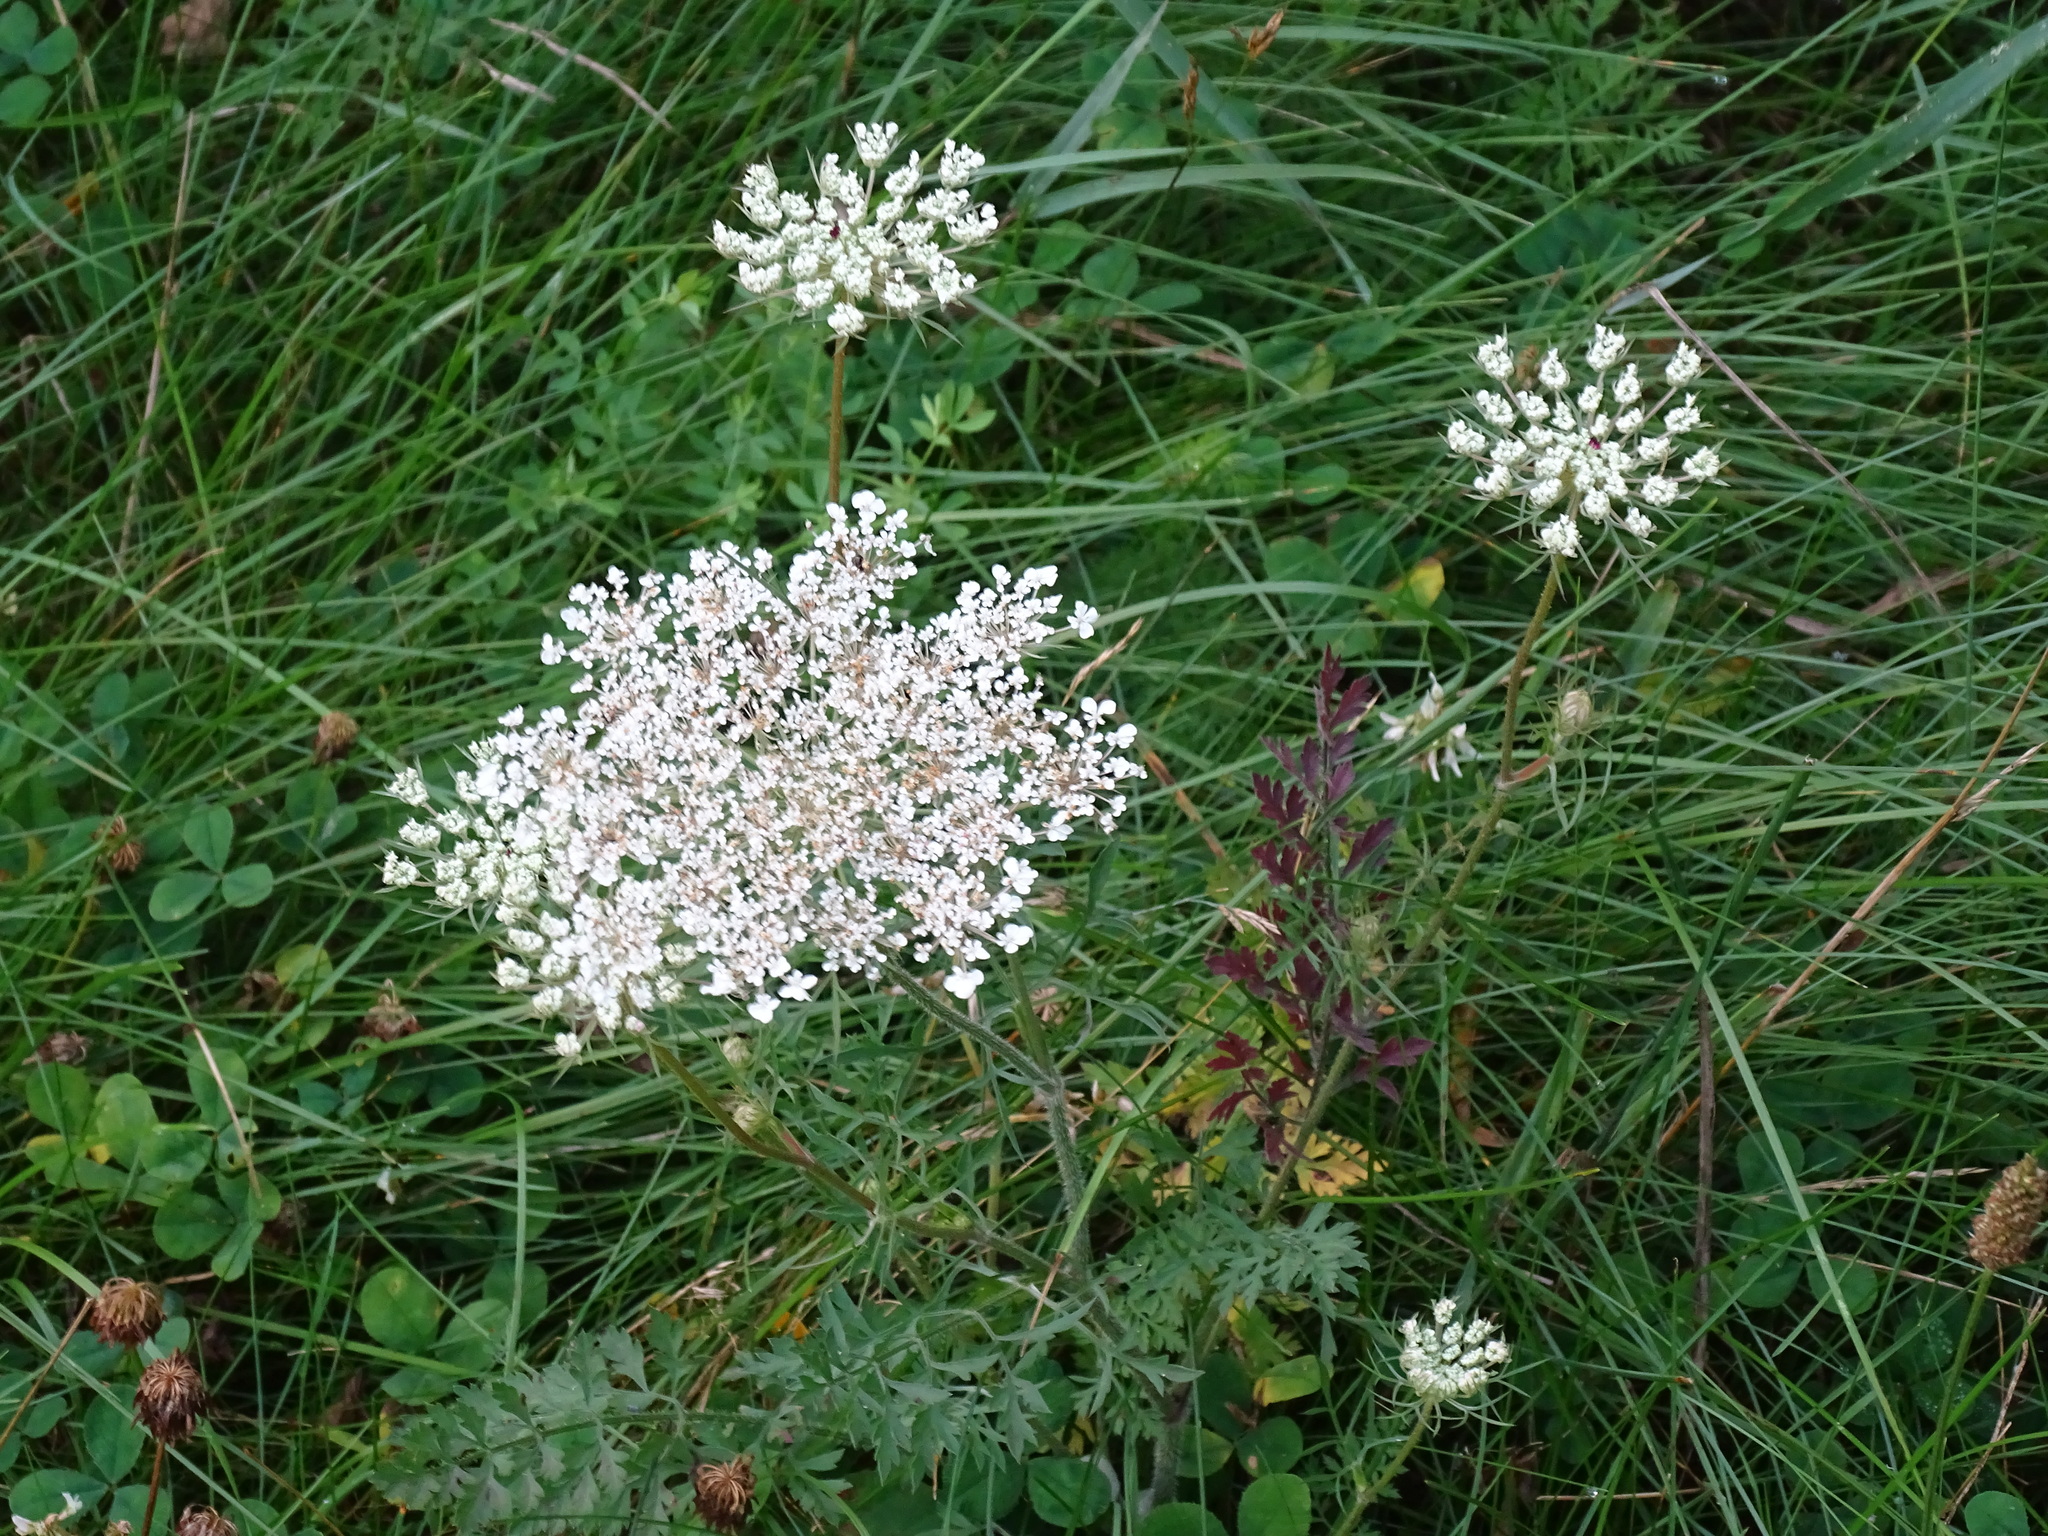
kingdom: Plantae
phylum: Tracheophyta
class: Magnoliopsida
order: Apiales
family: Apiaceae
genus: Daucus
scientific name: Daucus carota
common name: Wild carrot
